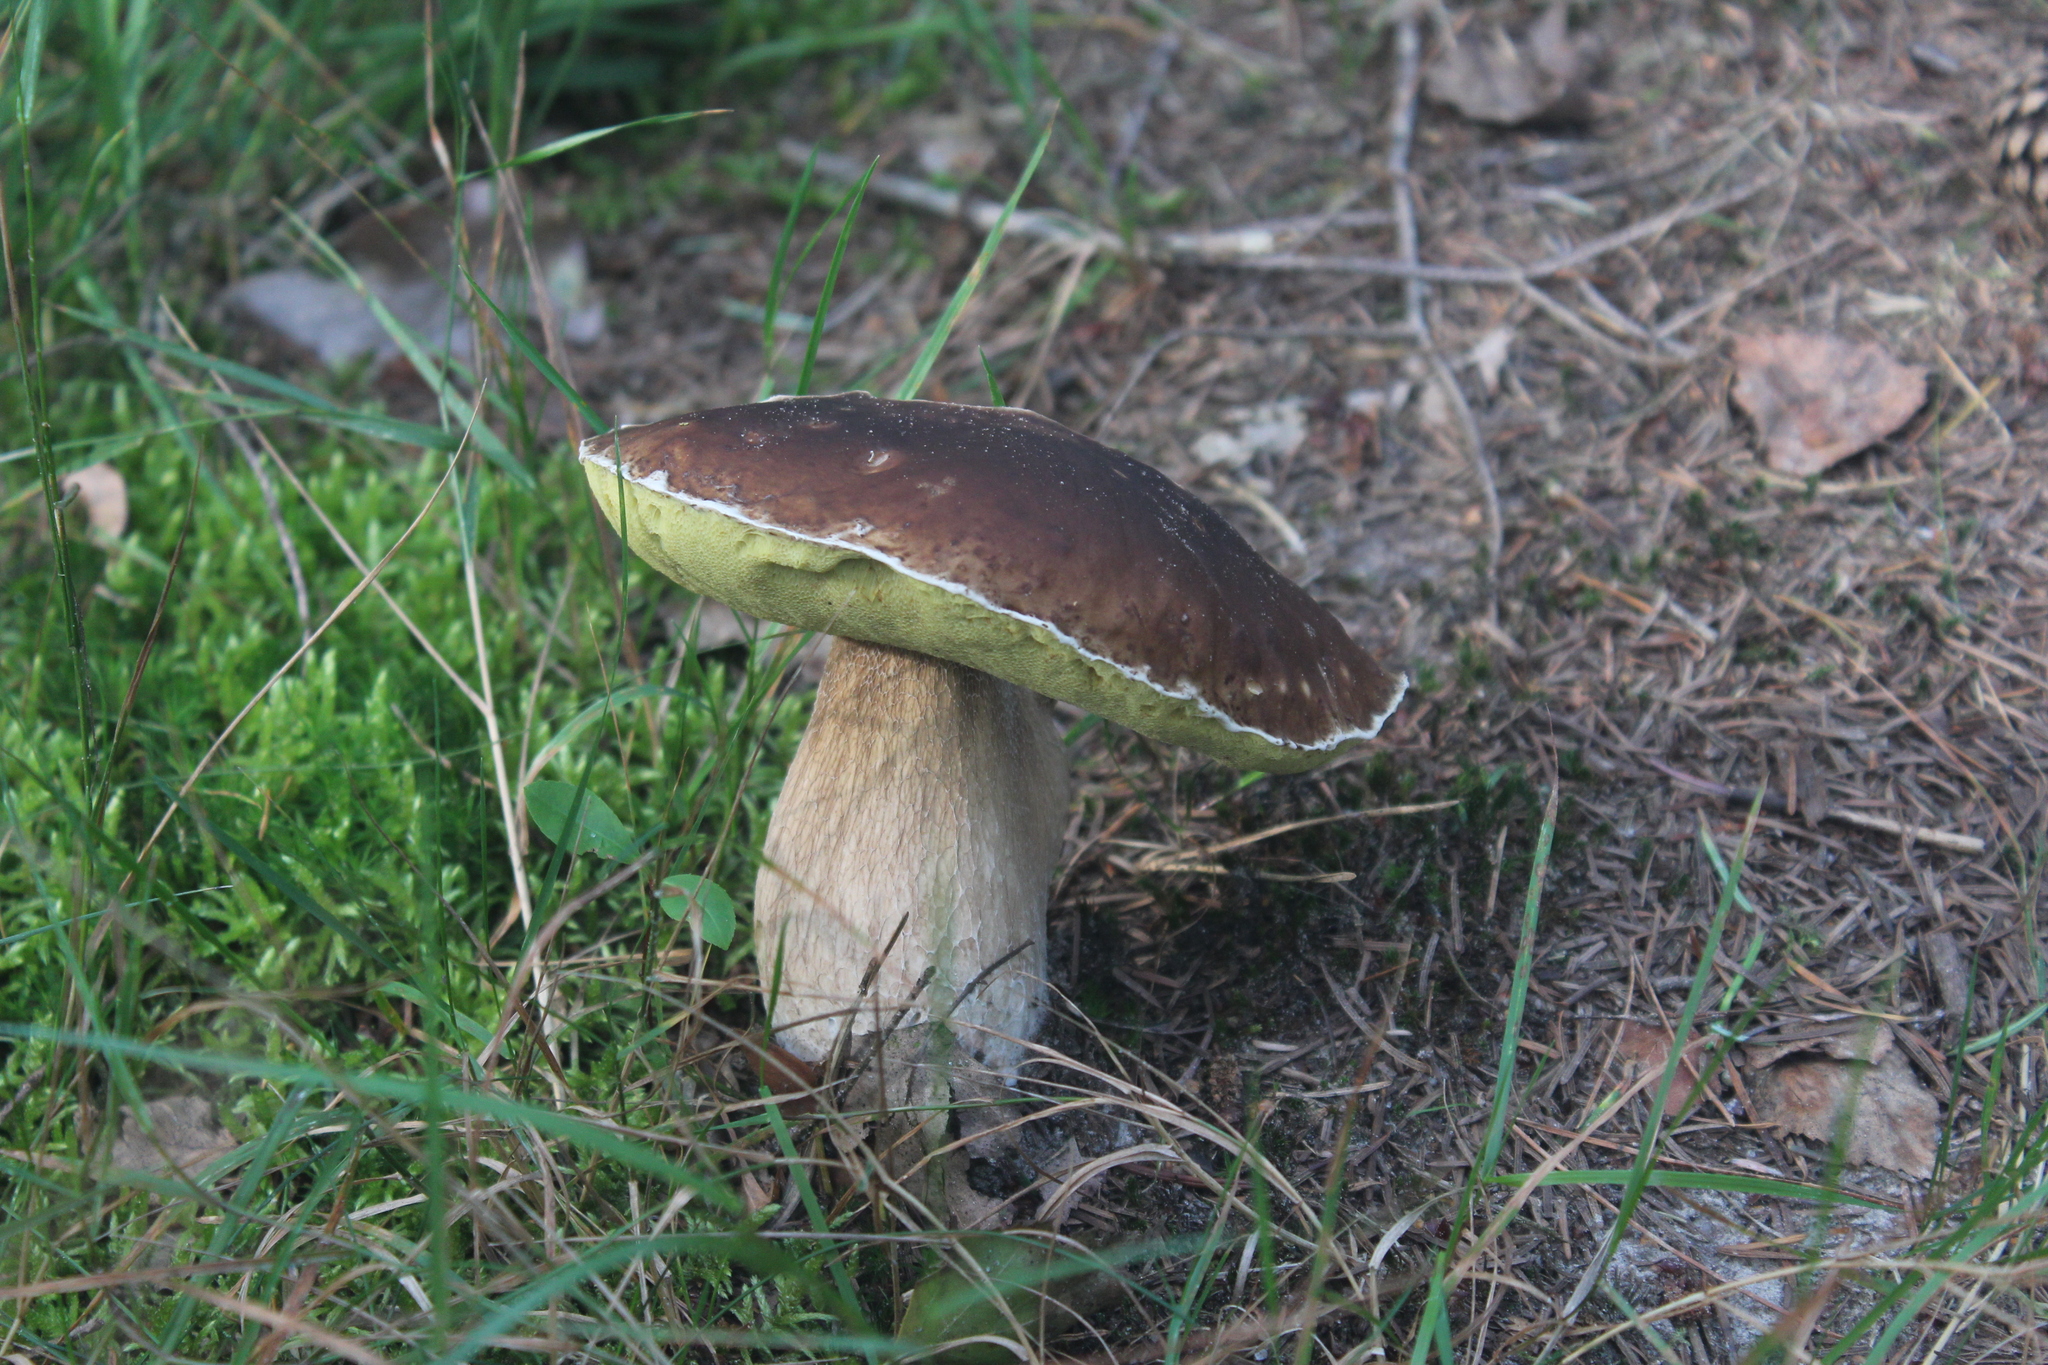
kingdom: Fungi
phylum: Basidiomycota
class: Agaricomycetes
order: Boletales
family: Boletaceae
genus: Boletus
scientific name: Boletus edulis
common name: Cep
